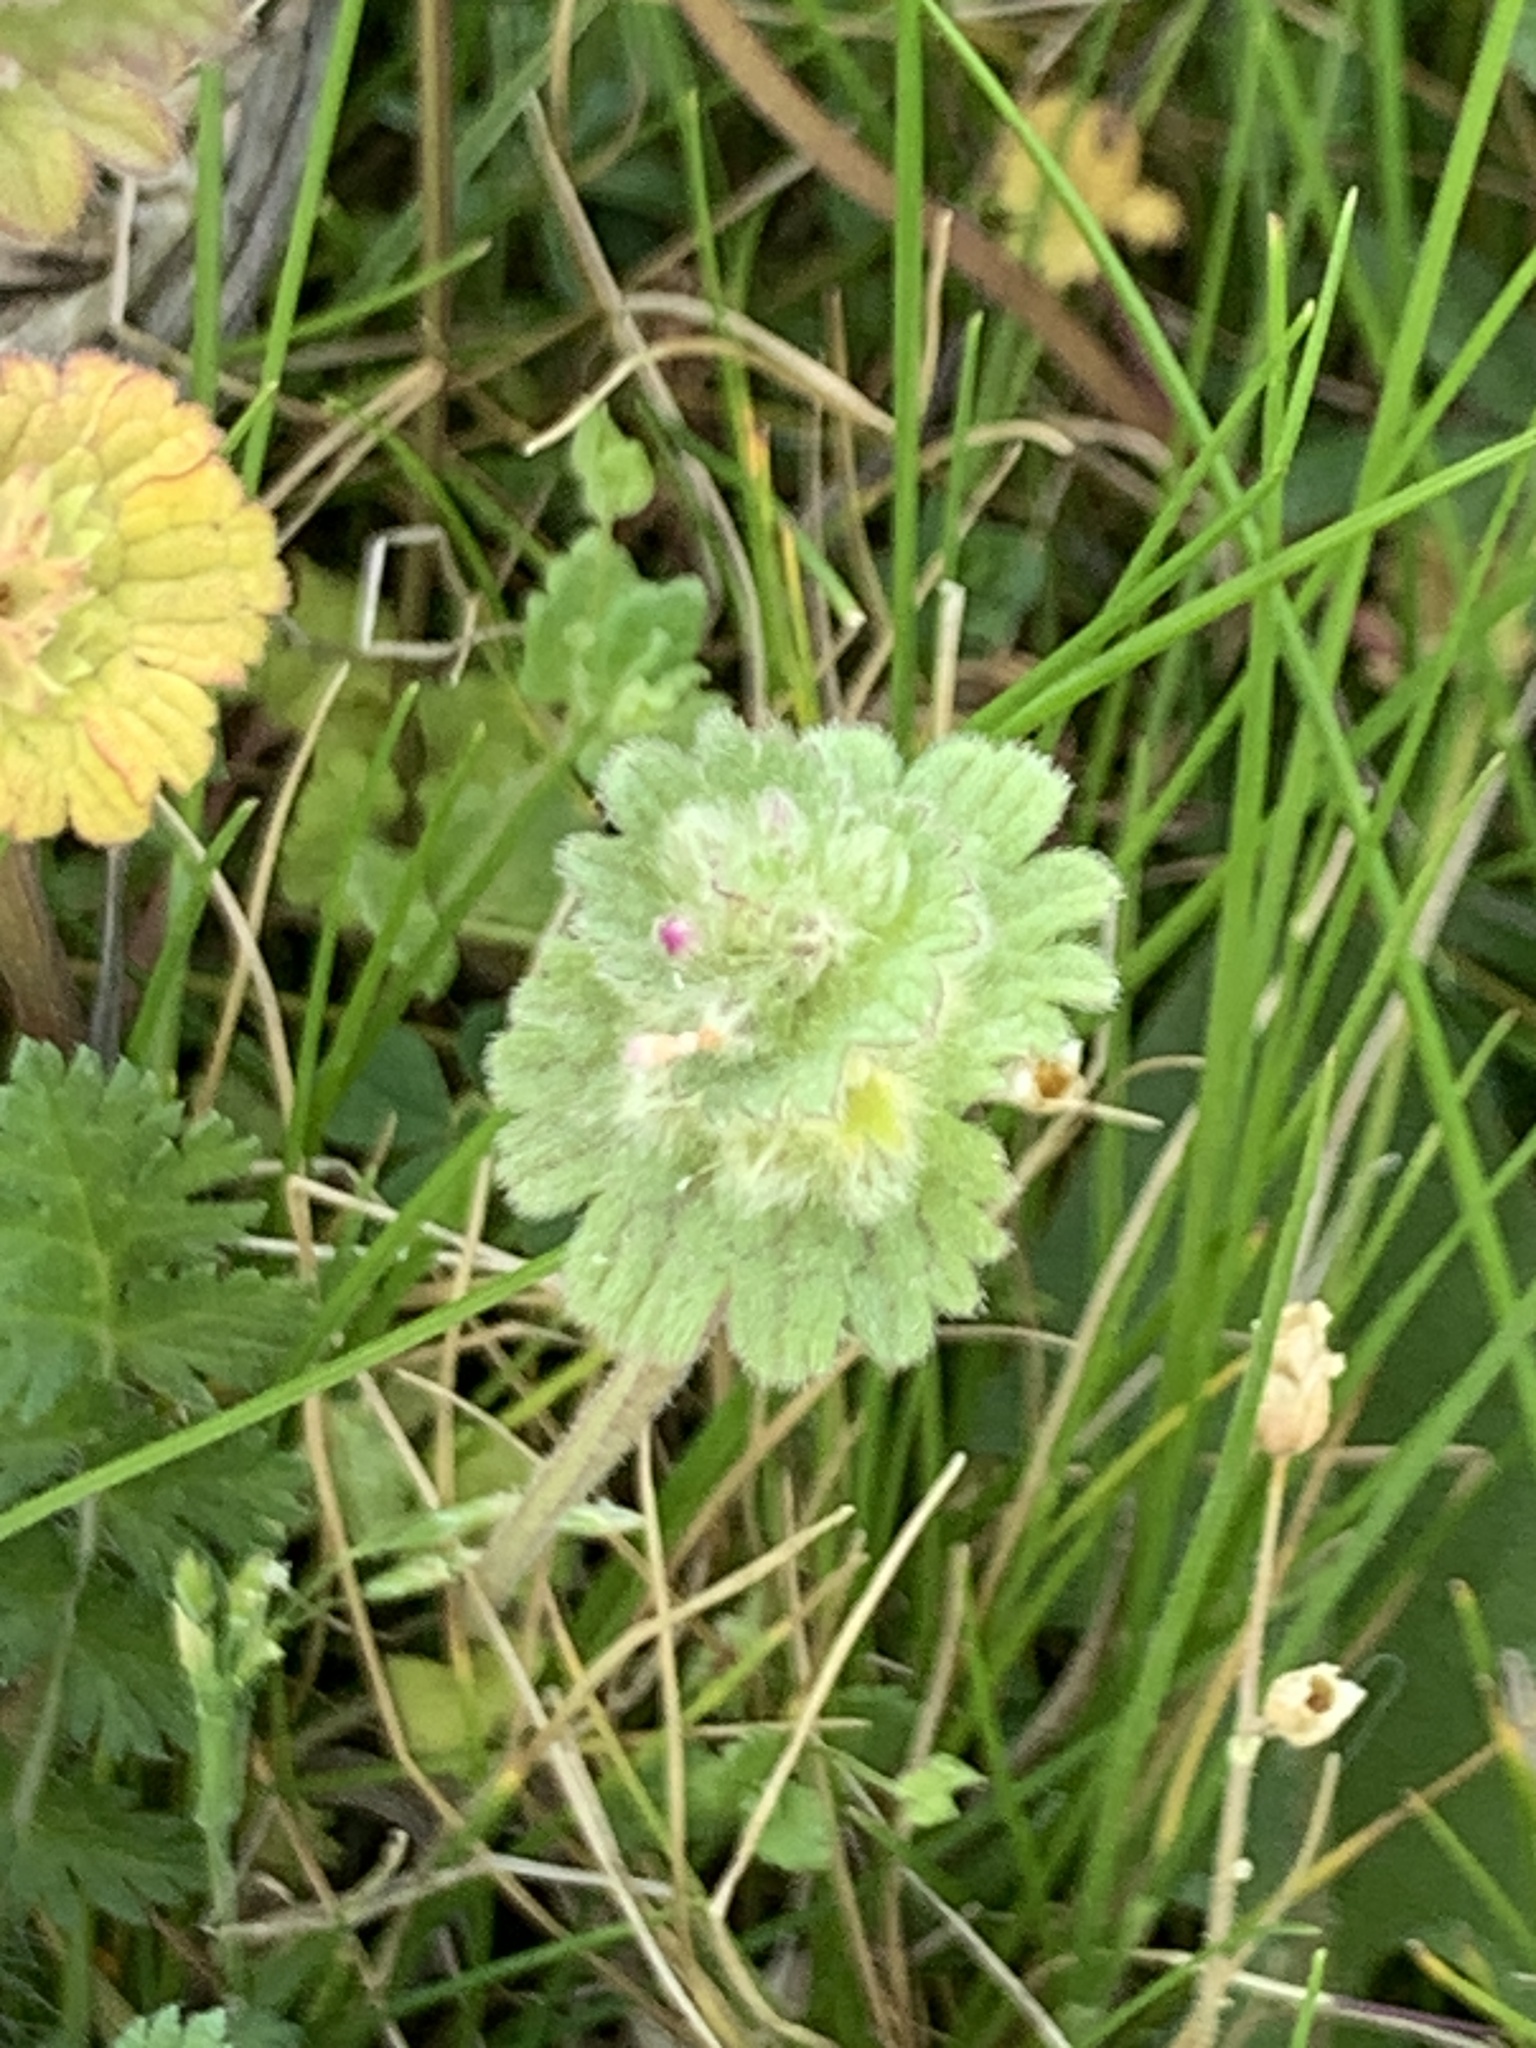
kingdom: Plantae
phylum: Tracheophyta
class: Magnoliopsida
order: Lamiales
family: Lamiaceae
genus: Lamium
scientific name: Lamium amplexicaule
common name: Henbit dead-nettle
